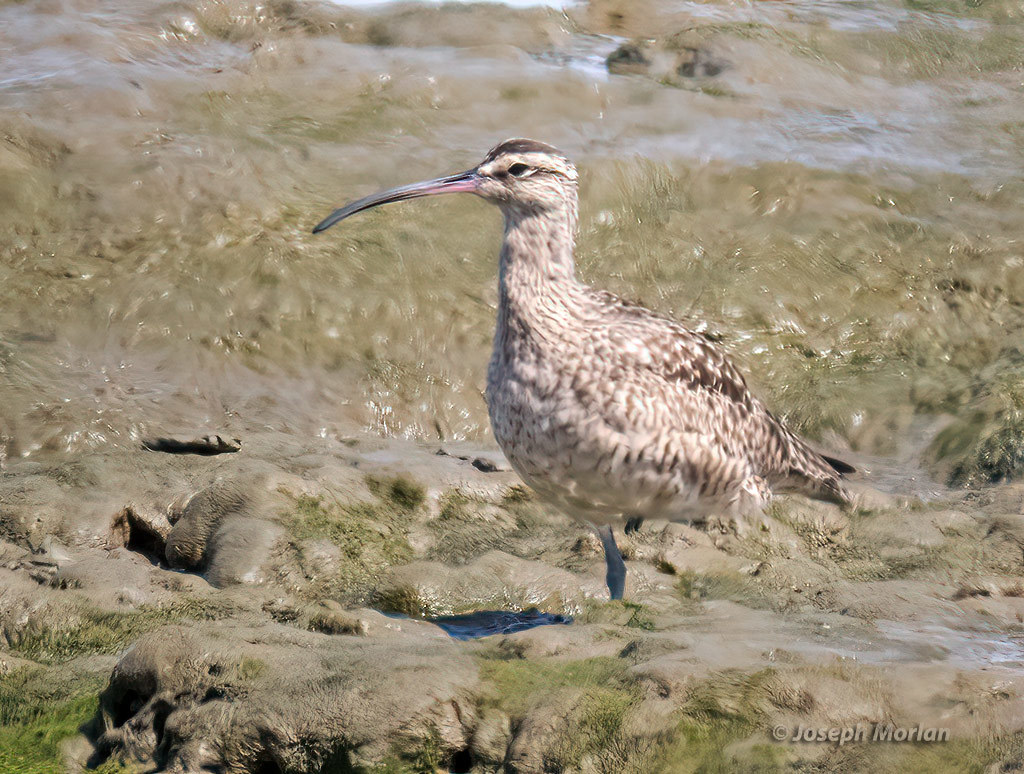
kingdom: Animalia
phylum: Chordata
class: Aves
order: Charadriiformes
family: Scolopacidae
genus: Numenius
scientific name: Numenius phaeopus
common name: Whimbrel
